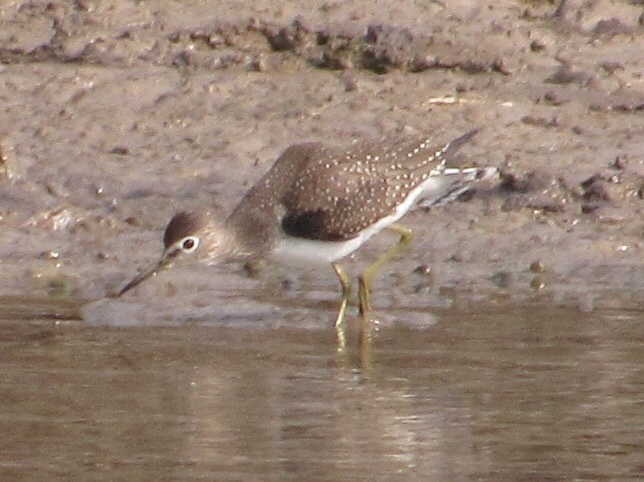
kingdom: Animalia
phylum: Chordata
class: Aves
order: Charadriiformes
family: Scolopacidae
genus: Tringa
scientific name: Tringa solitaria
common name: Solitary sandpiper
